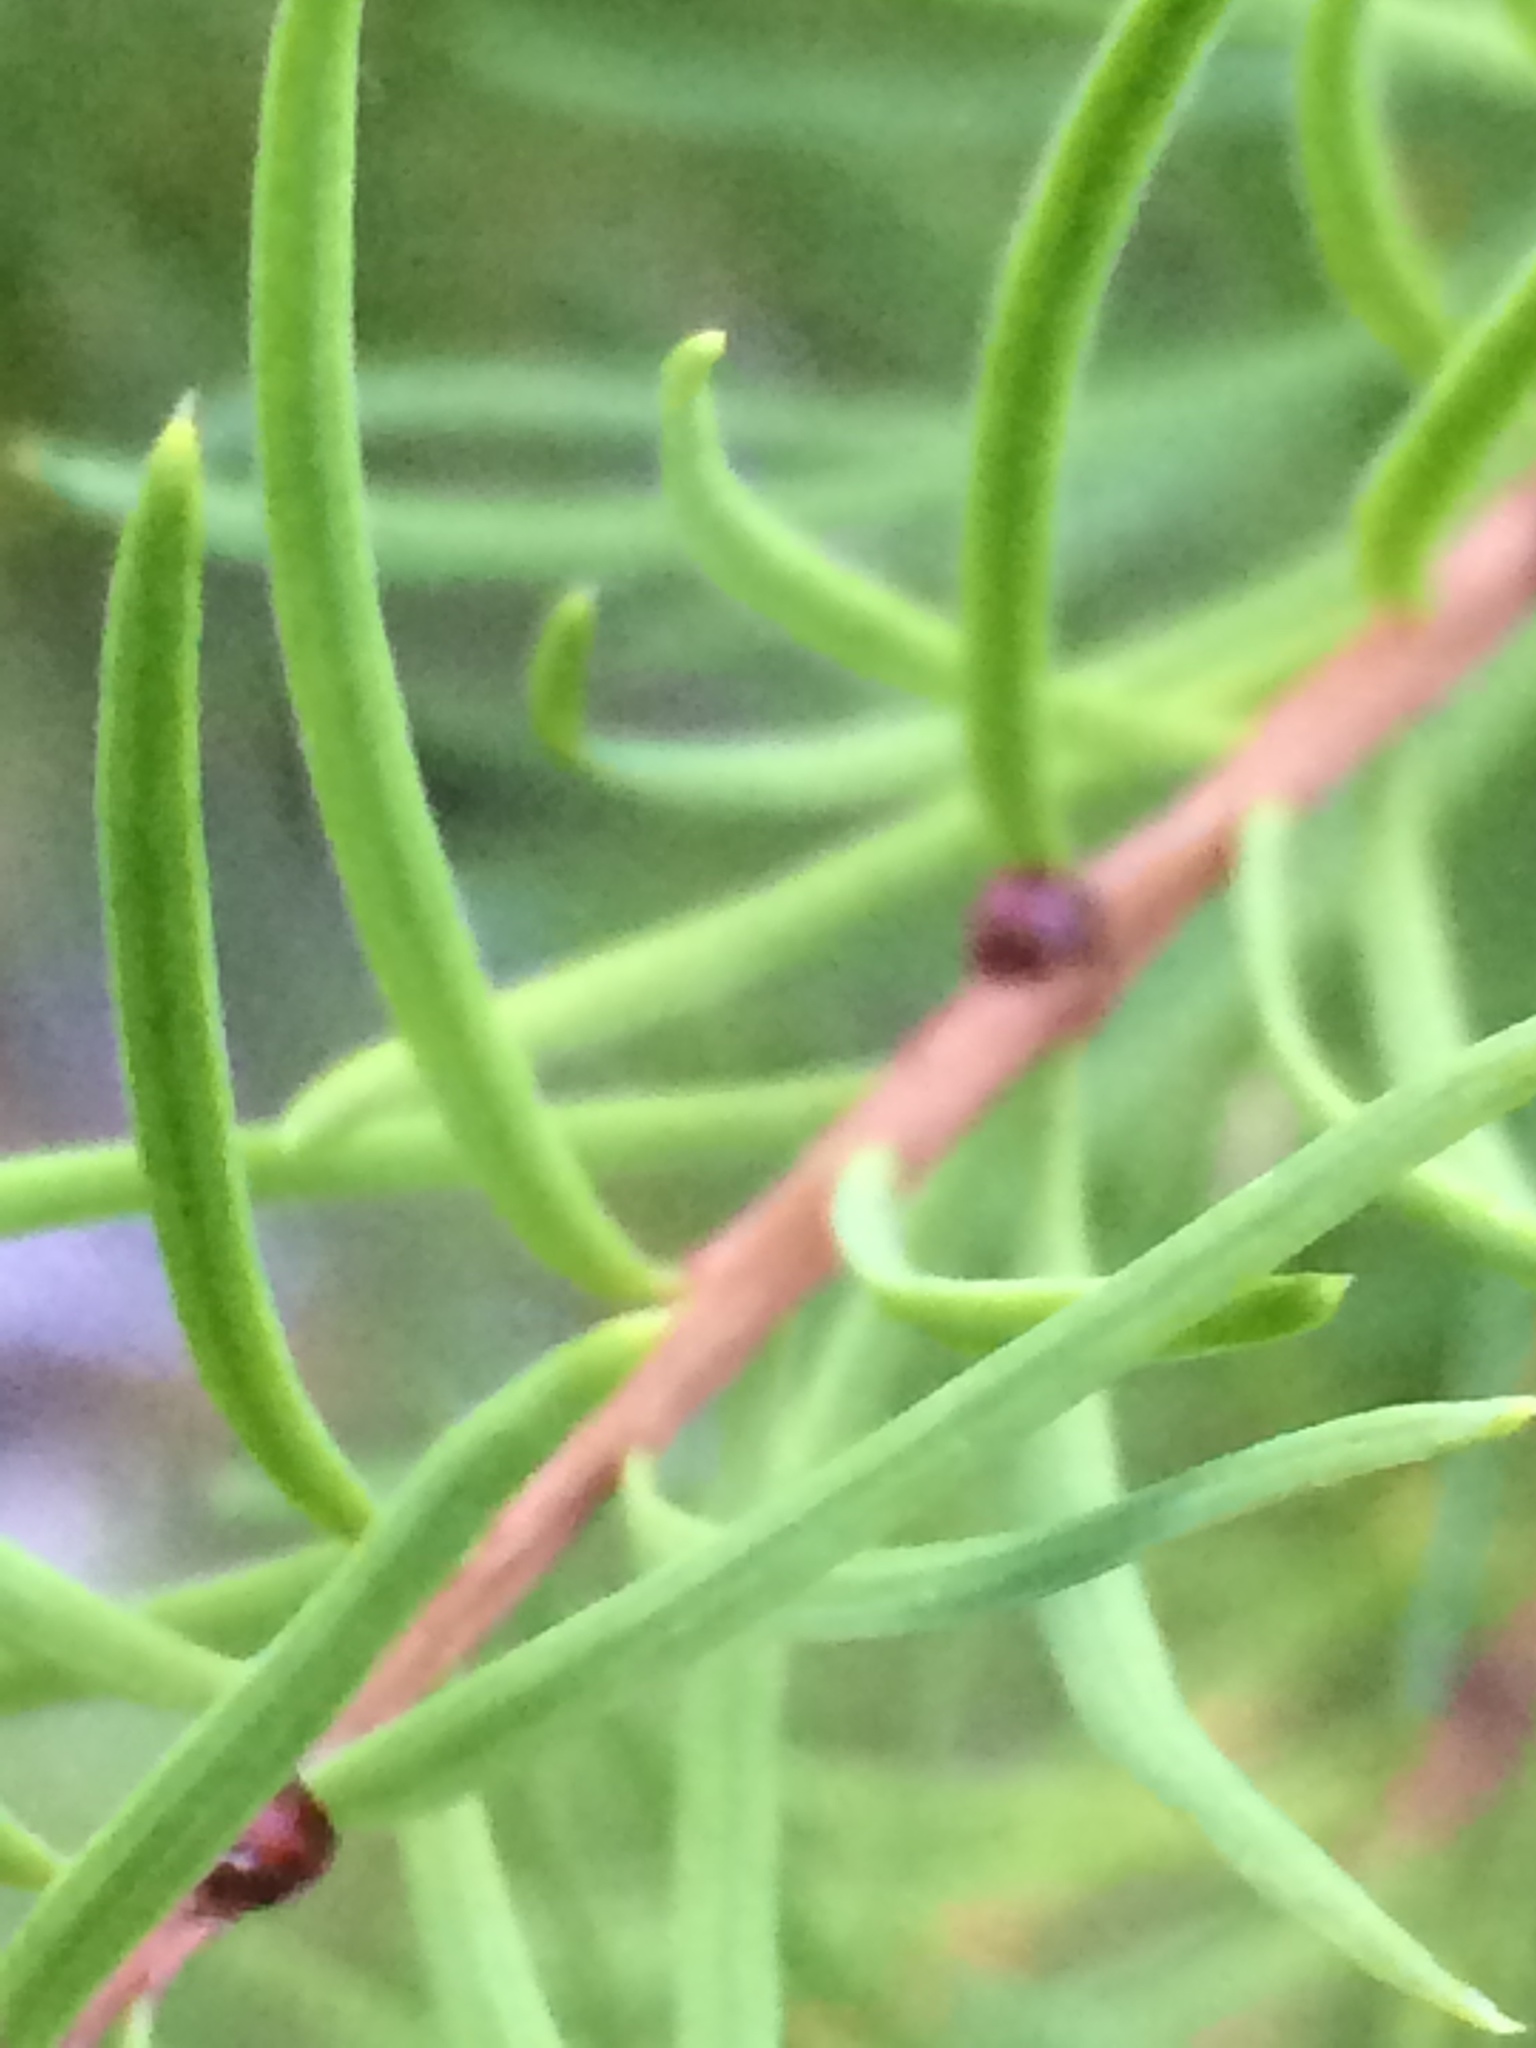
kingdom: Plantae
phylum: Tracheophyta
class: Pinopsida
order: Pinales
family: Pinaceae
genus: Larix
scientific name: Larix occidentalis
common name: Western larch
